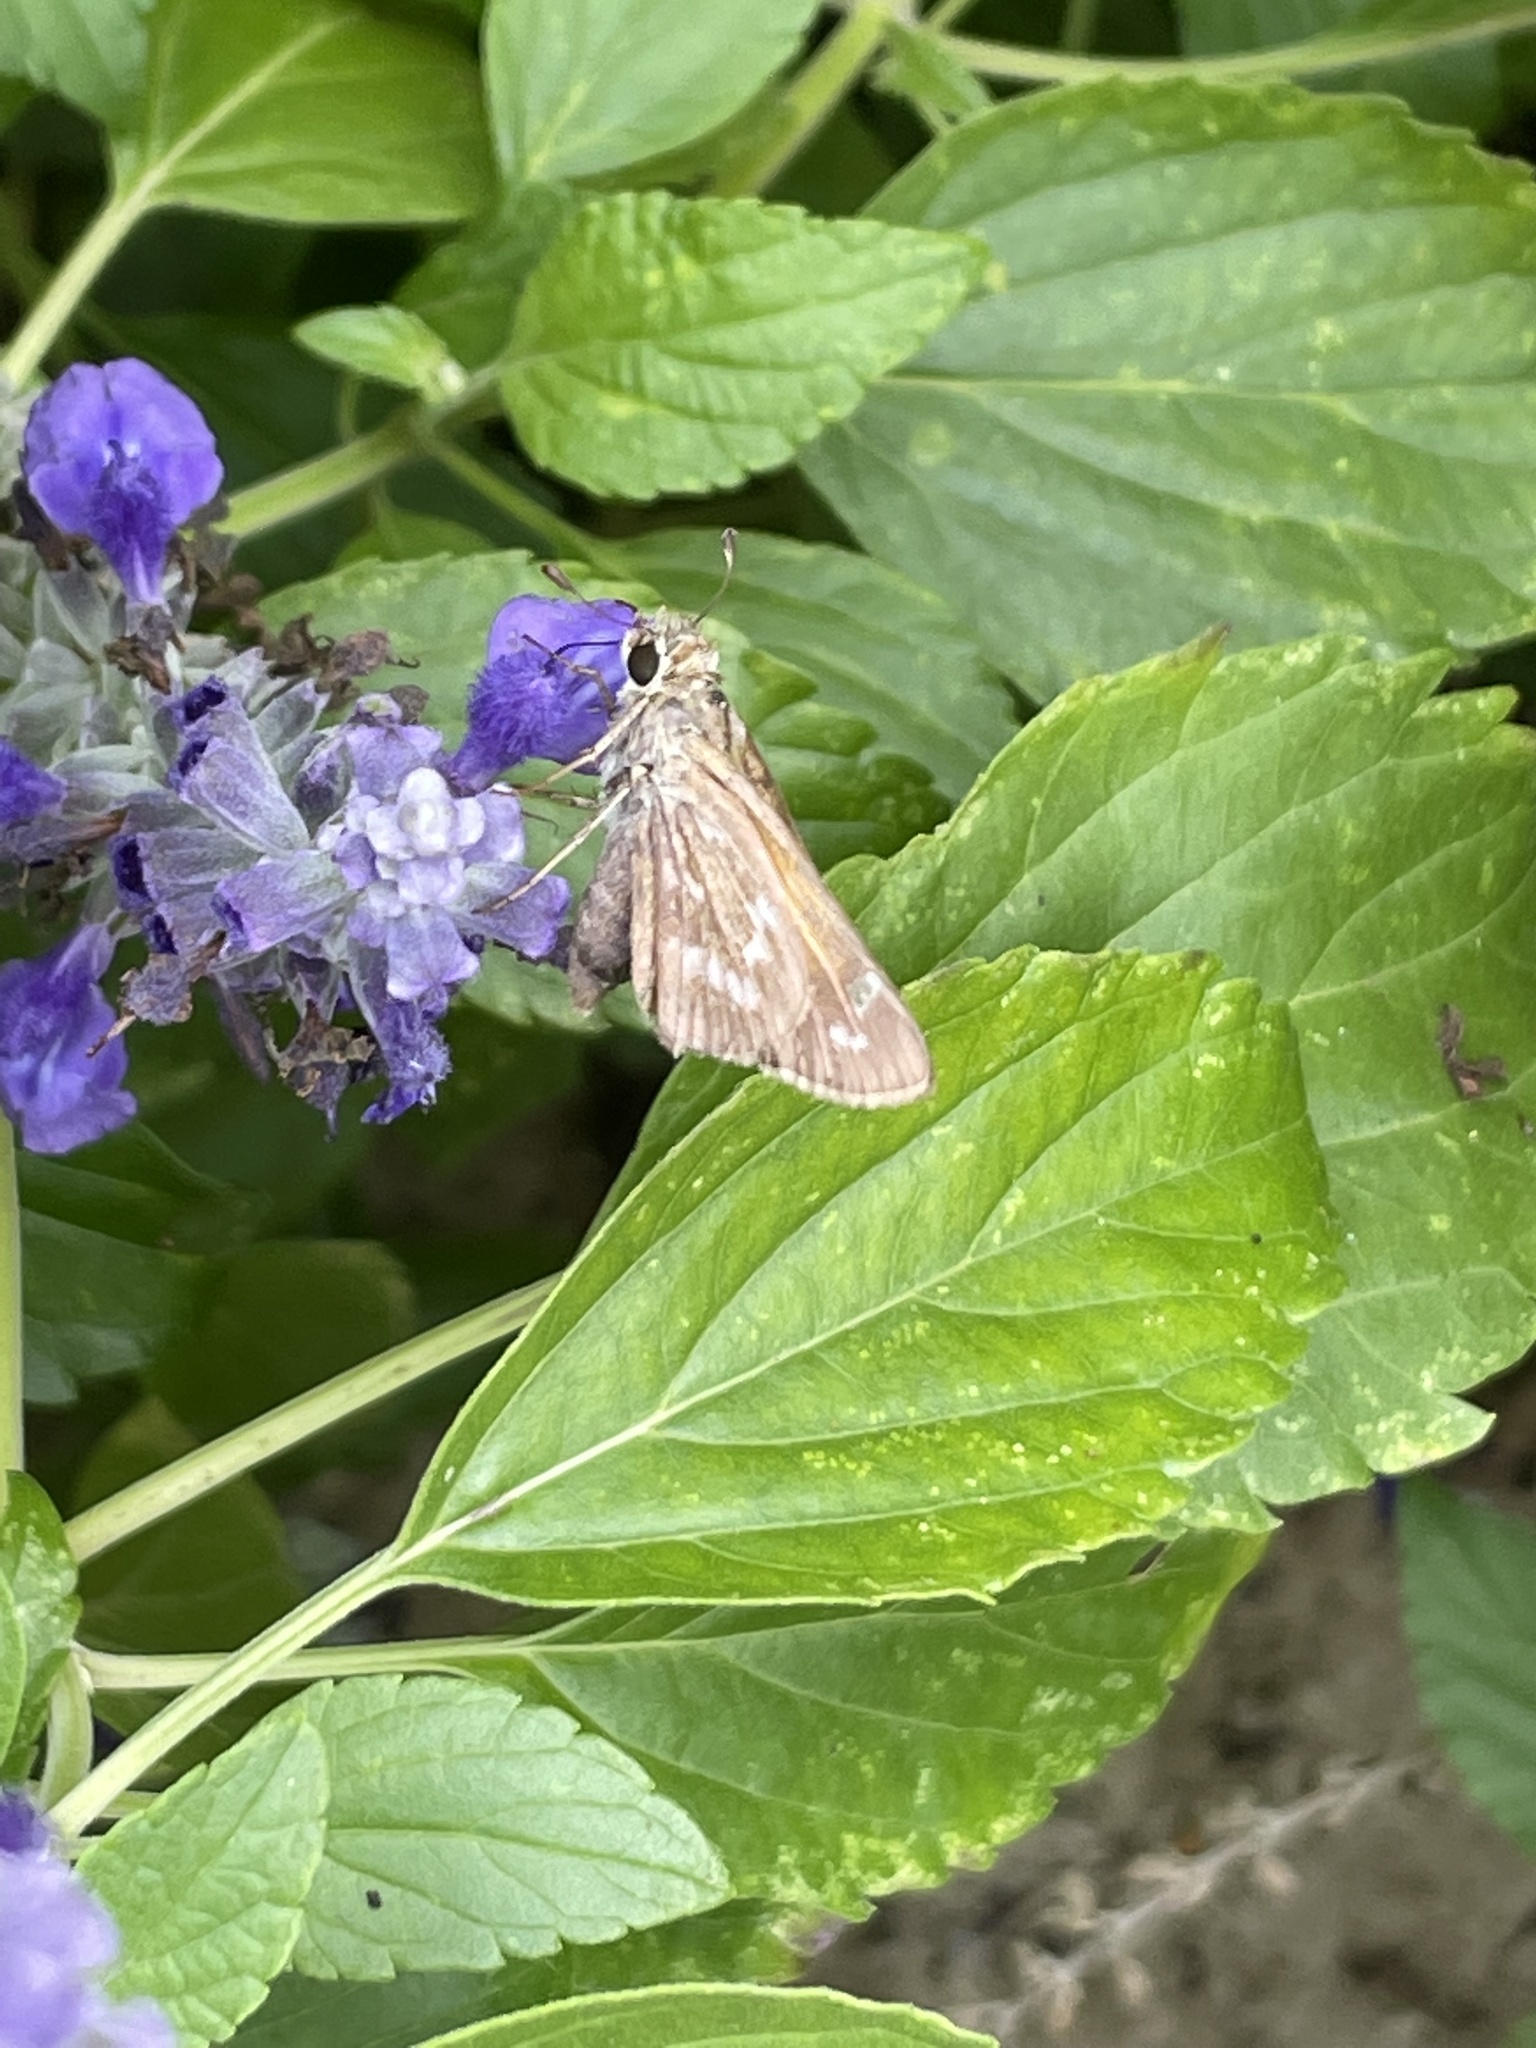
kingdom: Animalia
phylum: Arthropoda
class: Insecta
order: Lepidoptera
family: Hesperiidae
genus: Atalopedes
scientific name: Atalopedes
